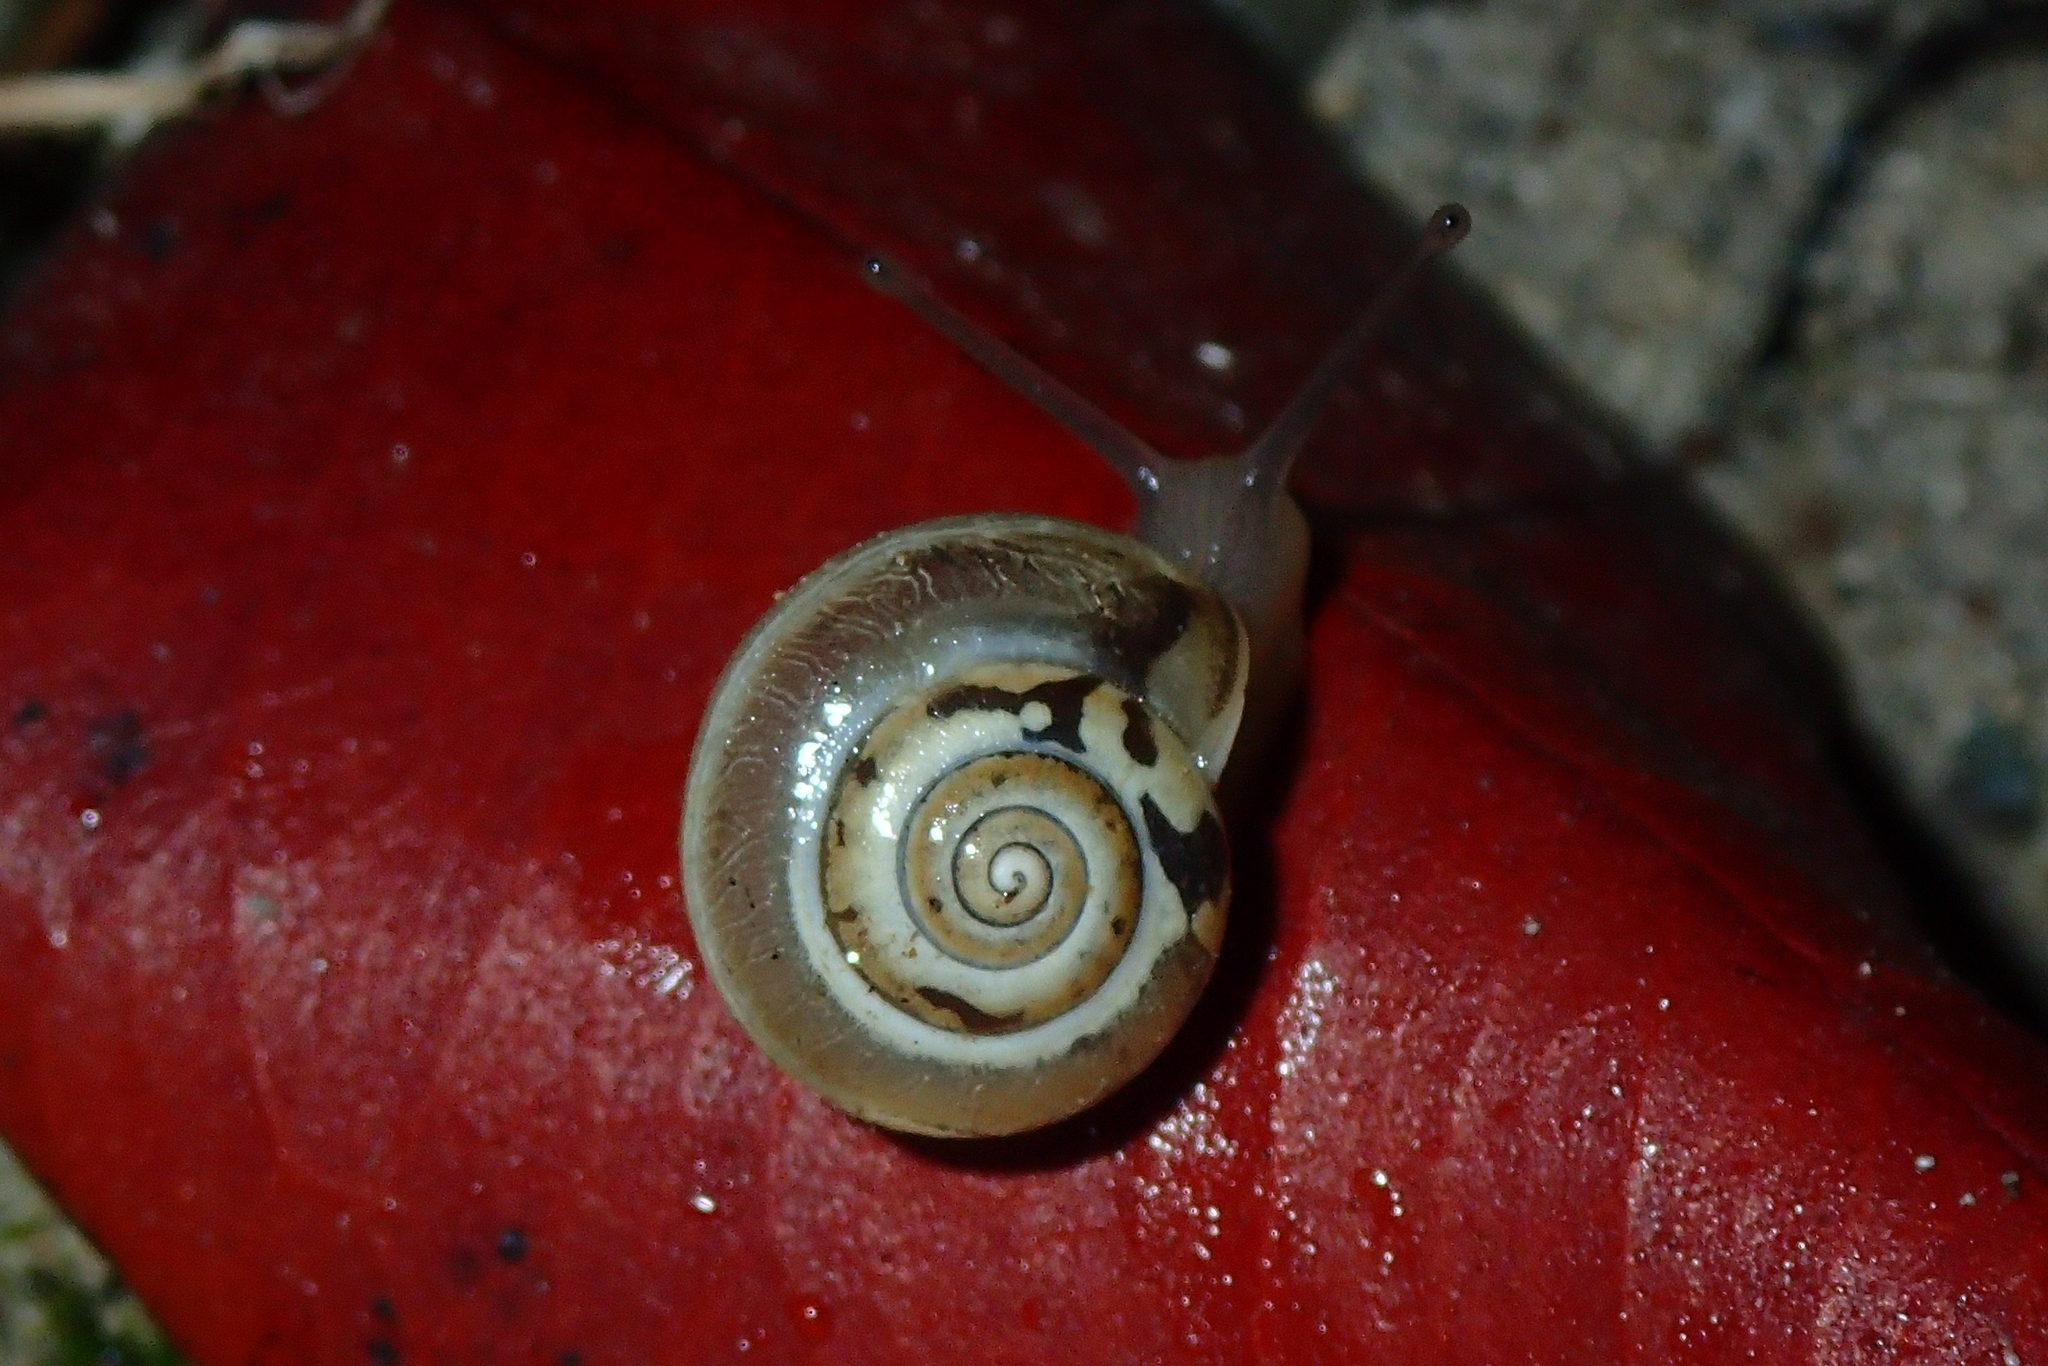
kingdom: Animalia
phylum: Mollusca
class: Gastropoda
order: Stylommatophora
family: Hygromiidae
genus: Monacha
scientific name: Monacha syriaca
